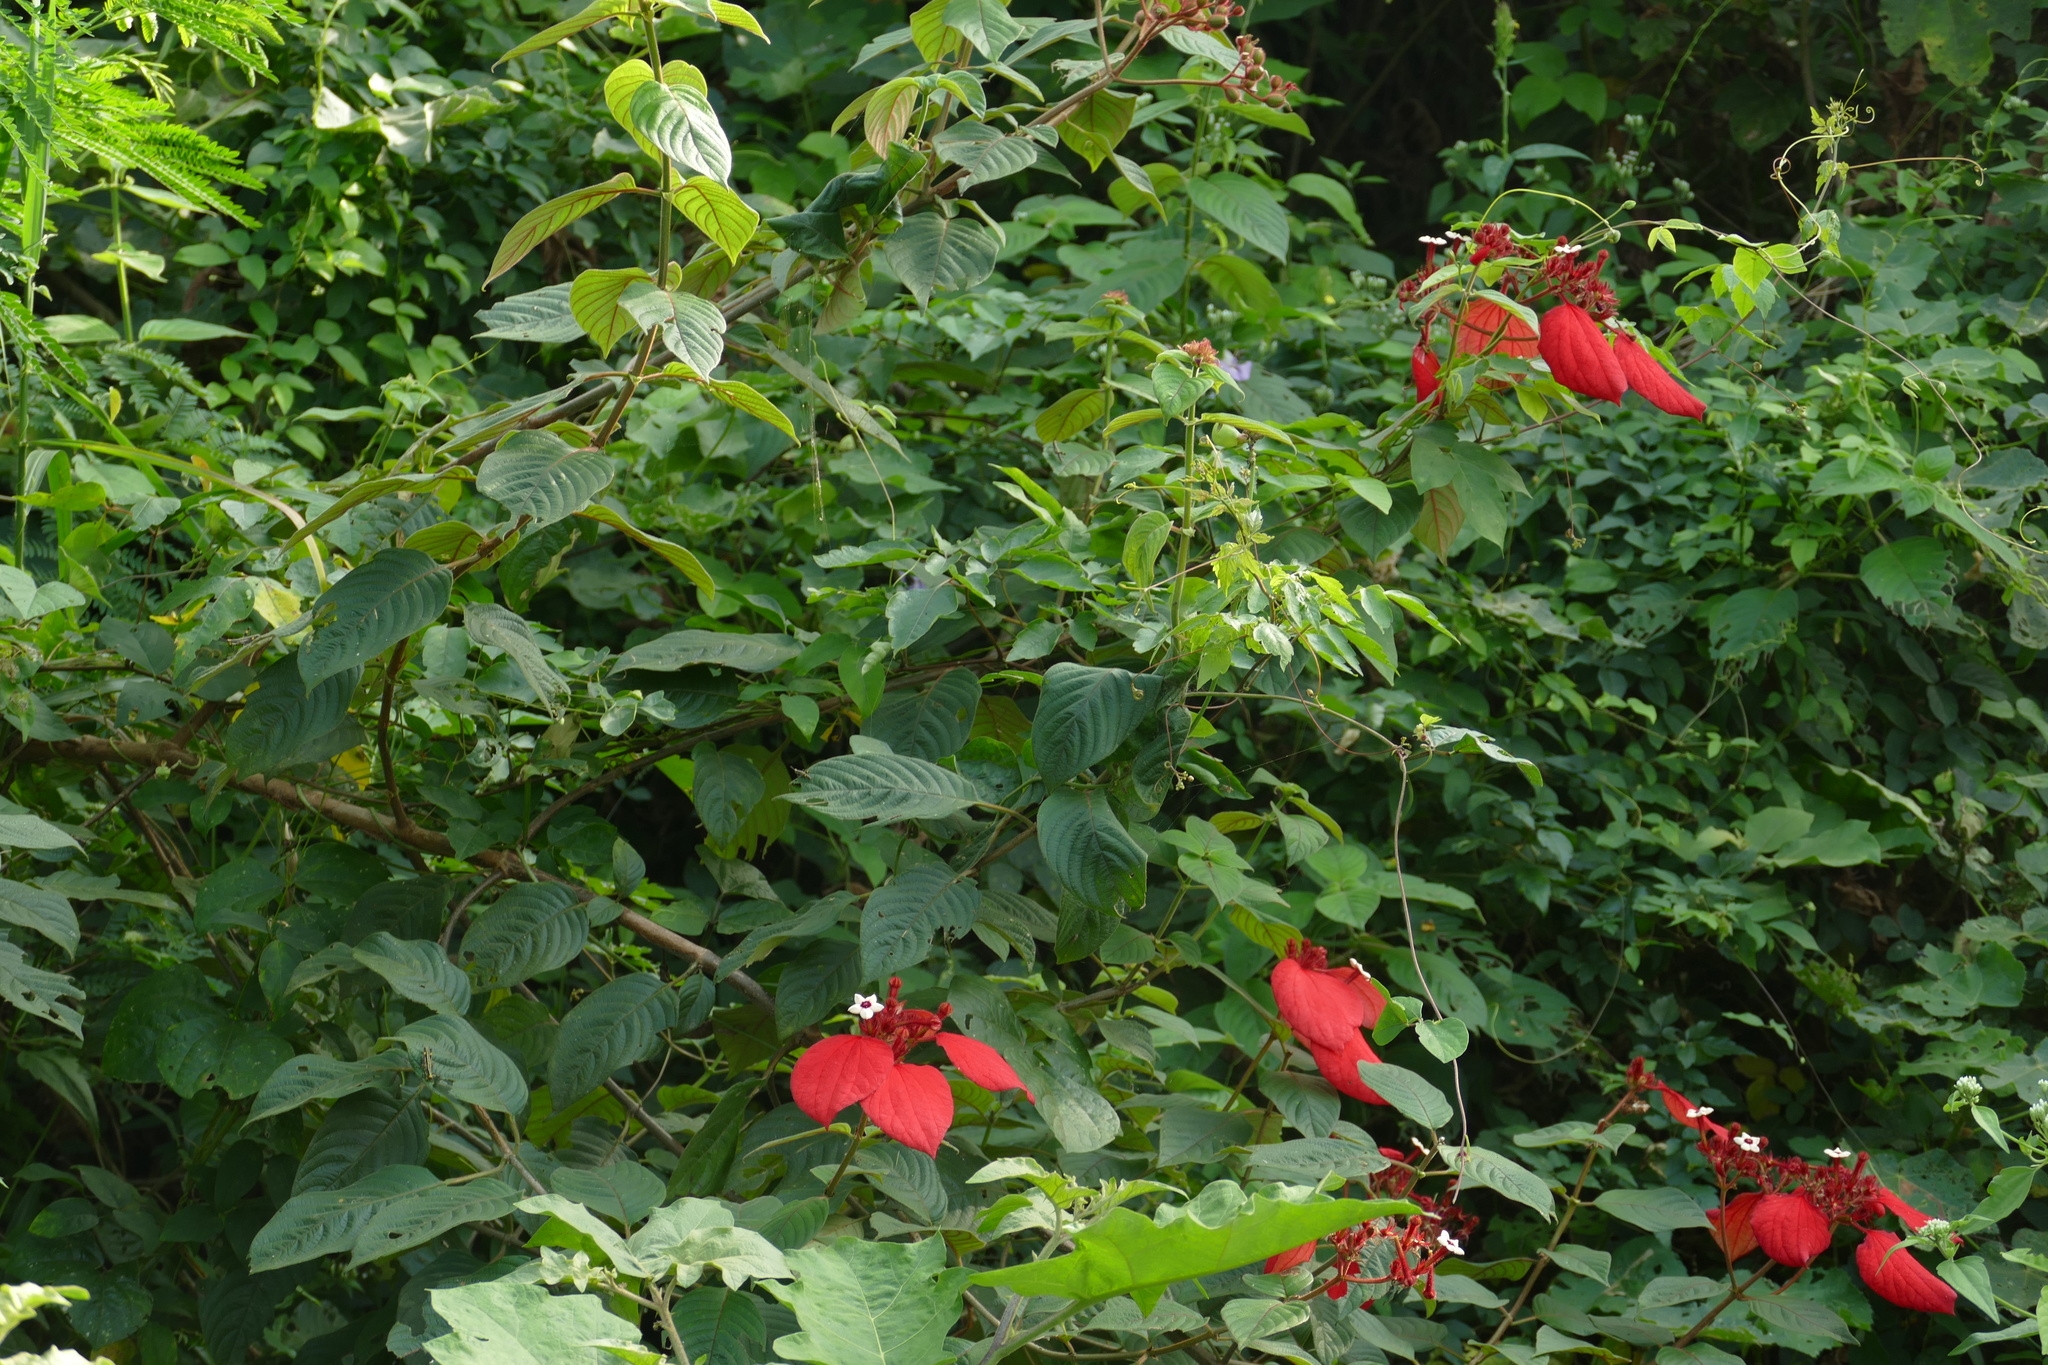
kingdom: Plantae
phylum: Tracheophyta
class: Magnoliopsida
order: Gentianales
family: Rubiaceae
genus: Mussaenda
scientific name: Mussaenda erythrophylla
